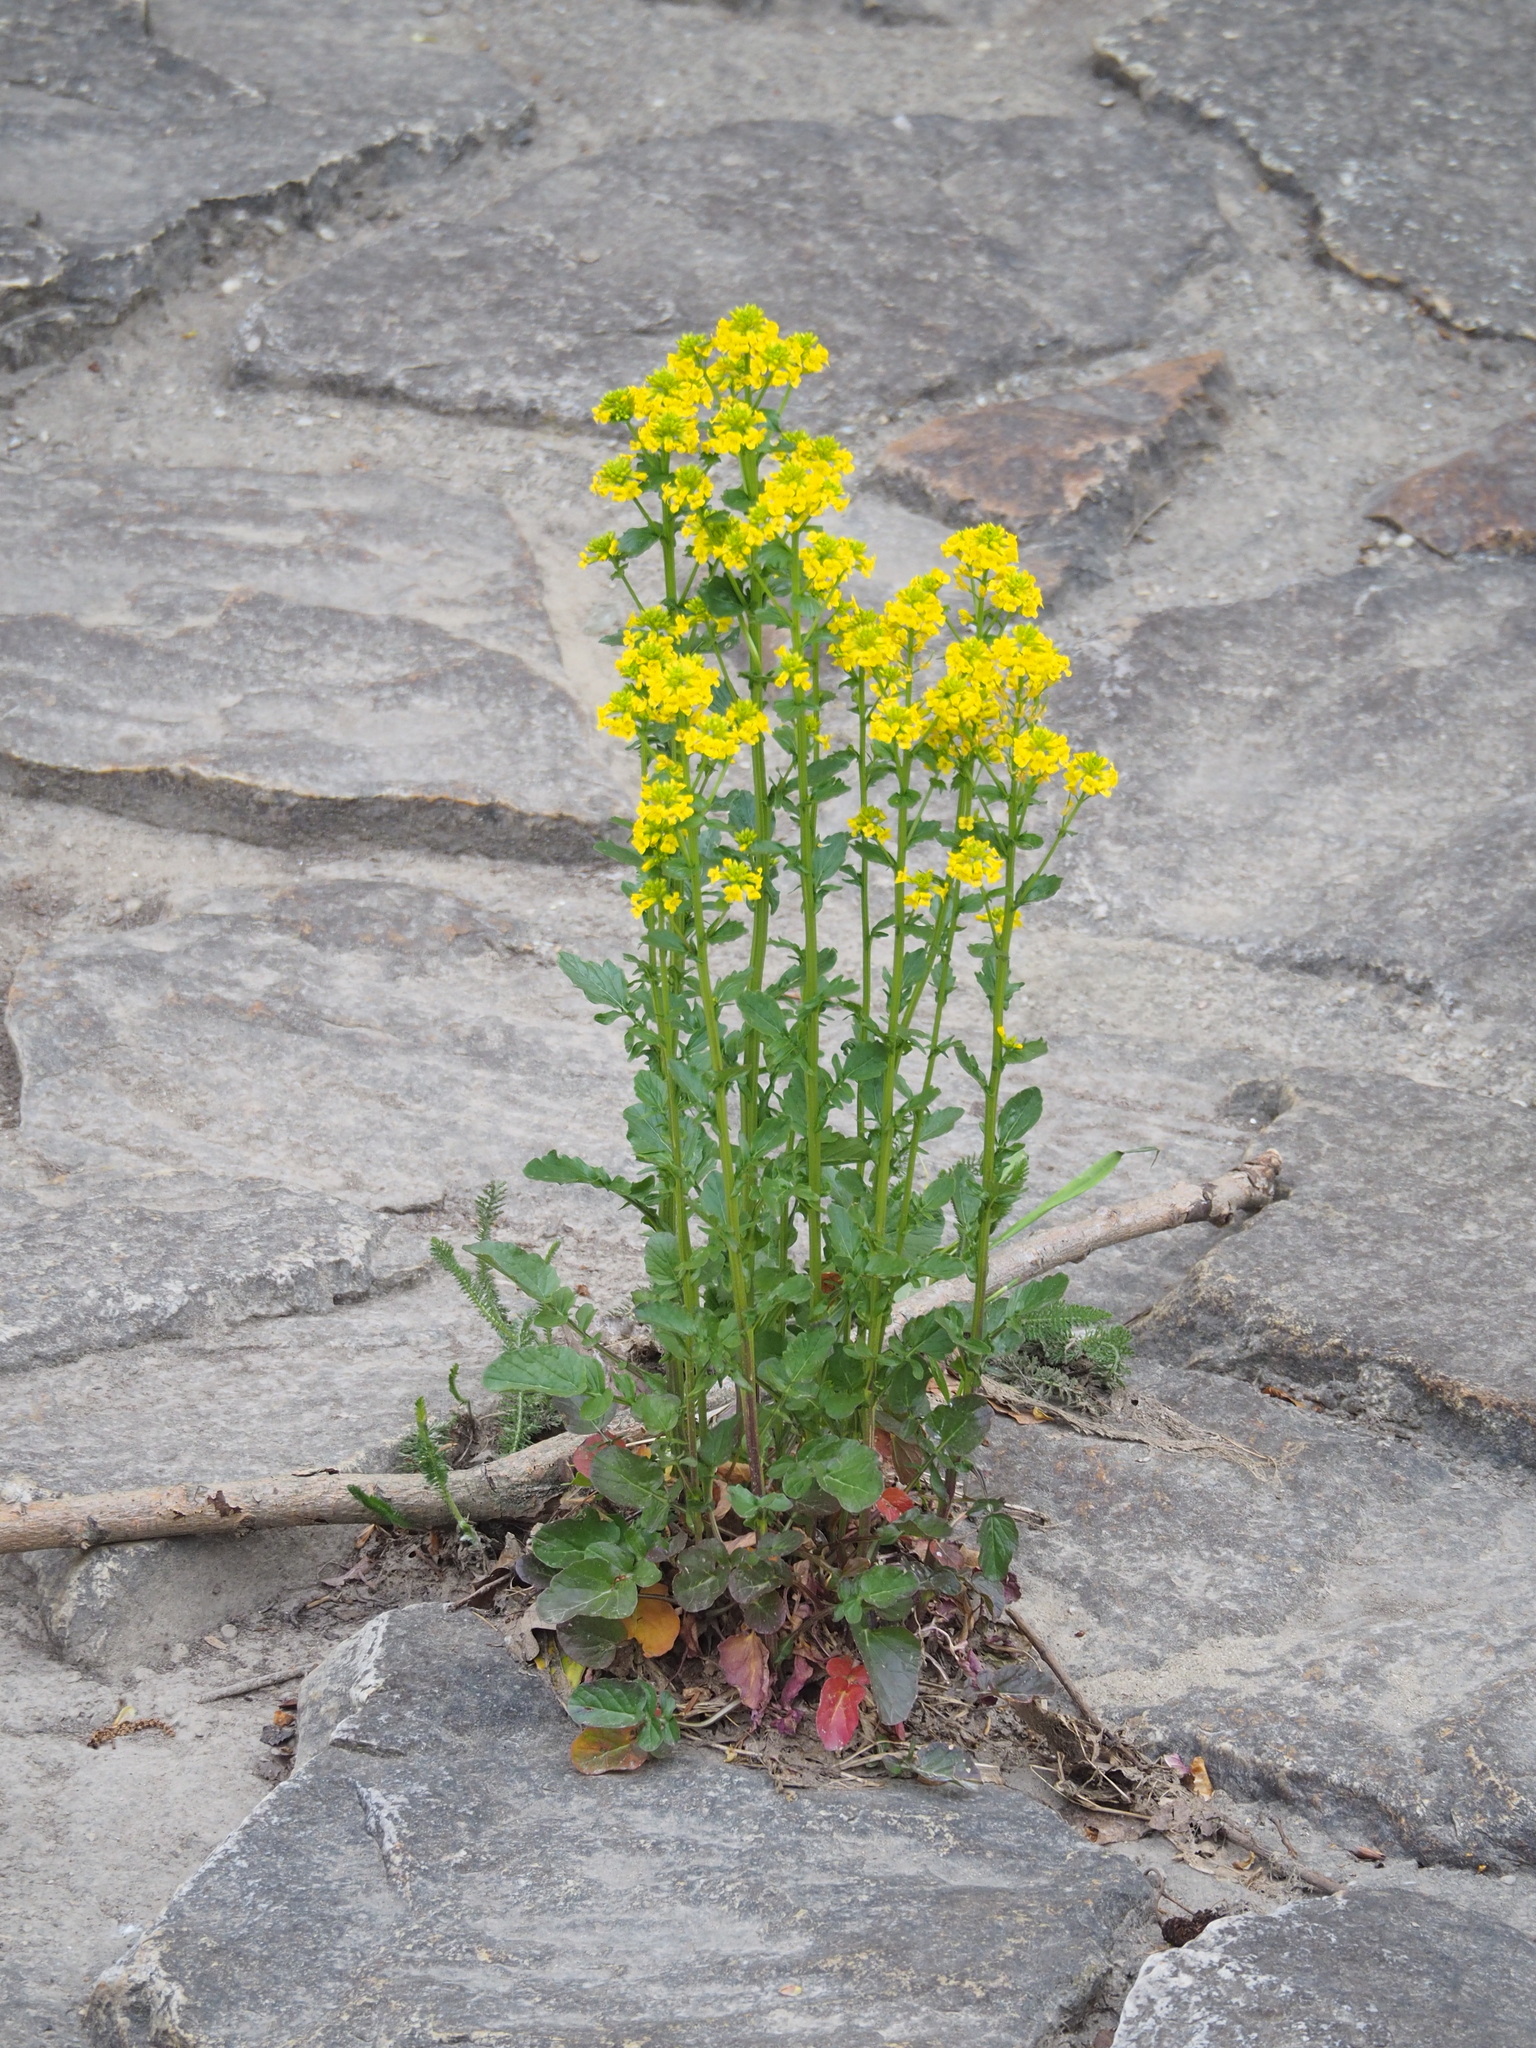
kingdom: Plantae
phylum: Tracheophyta
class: Magnoliopsida
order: Brassicales
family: Brassicaceae
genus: Barbarea
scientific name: Barbarea vulgaris
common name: Cressy-greens
